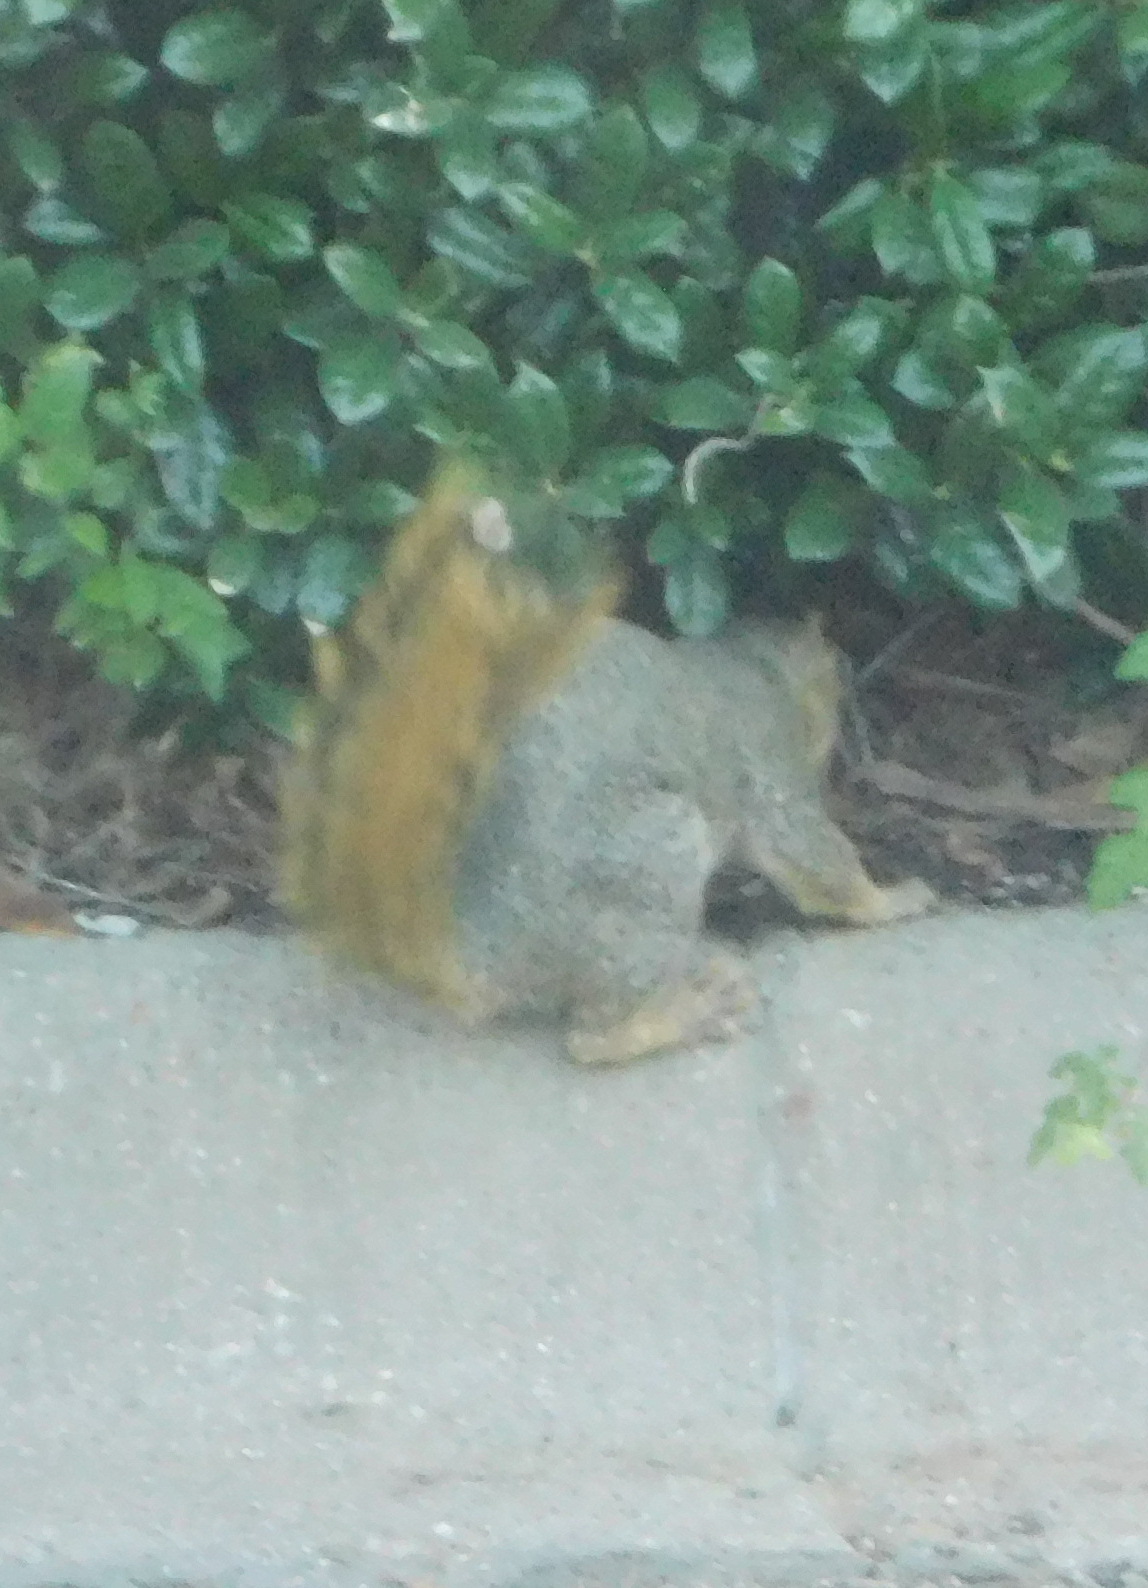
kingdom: Animalia
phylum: Chordata
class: Mammalia
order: Rodentia
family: Sciuridae
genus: Sciurus
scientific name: Sciurus niger
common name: Fox squirrel
